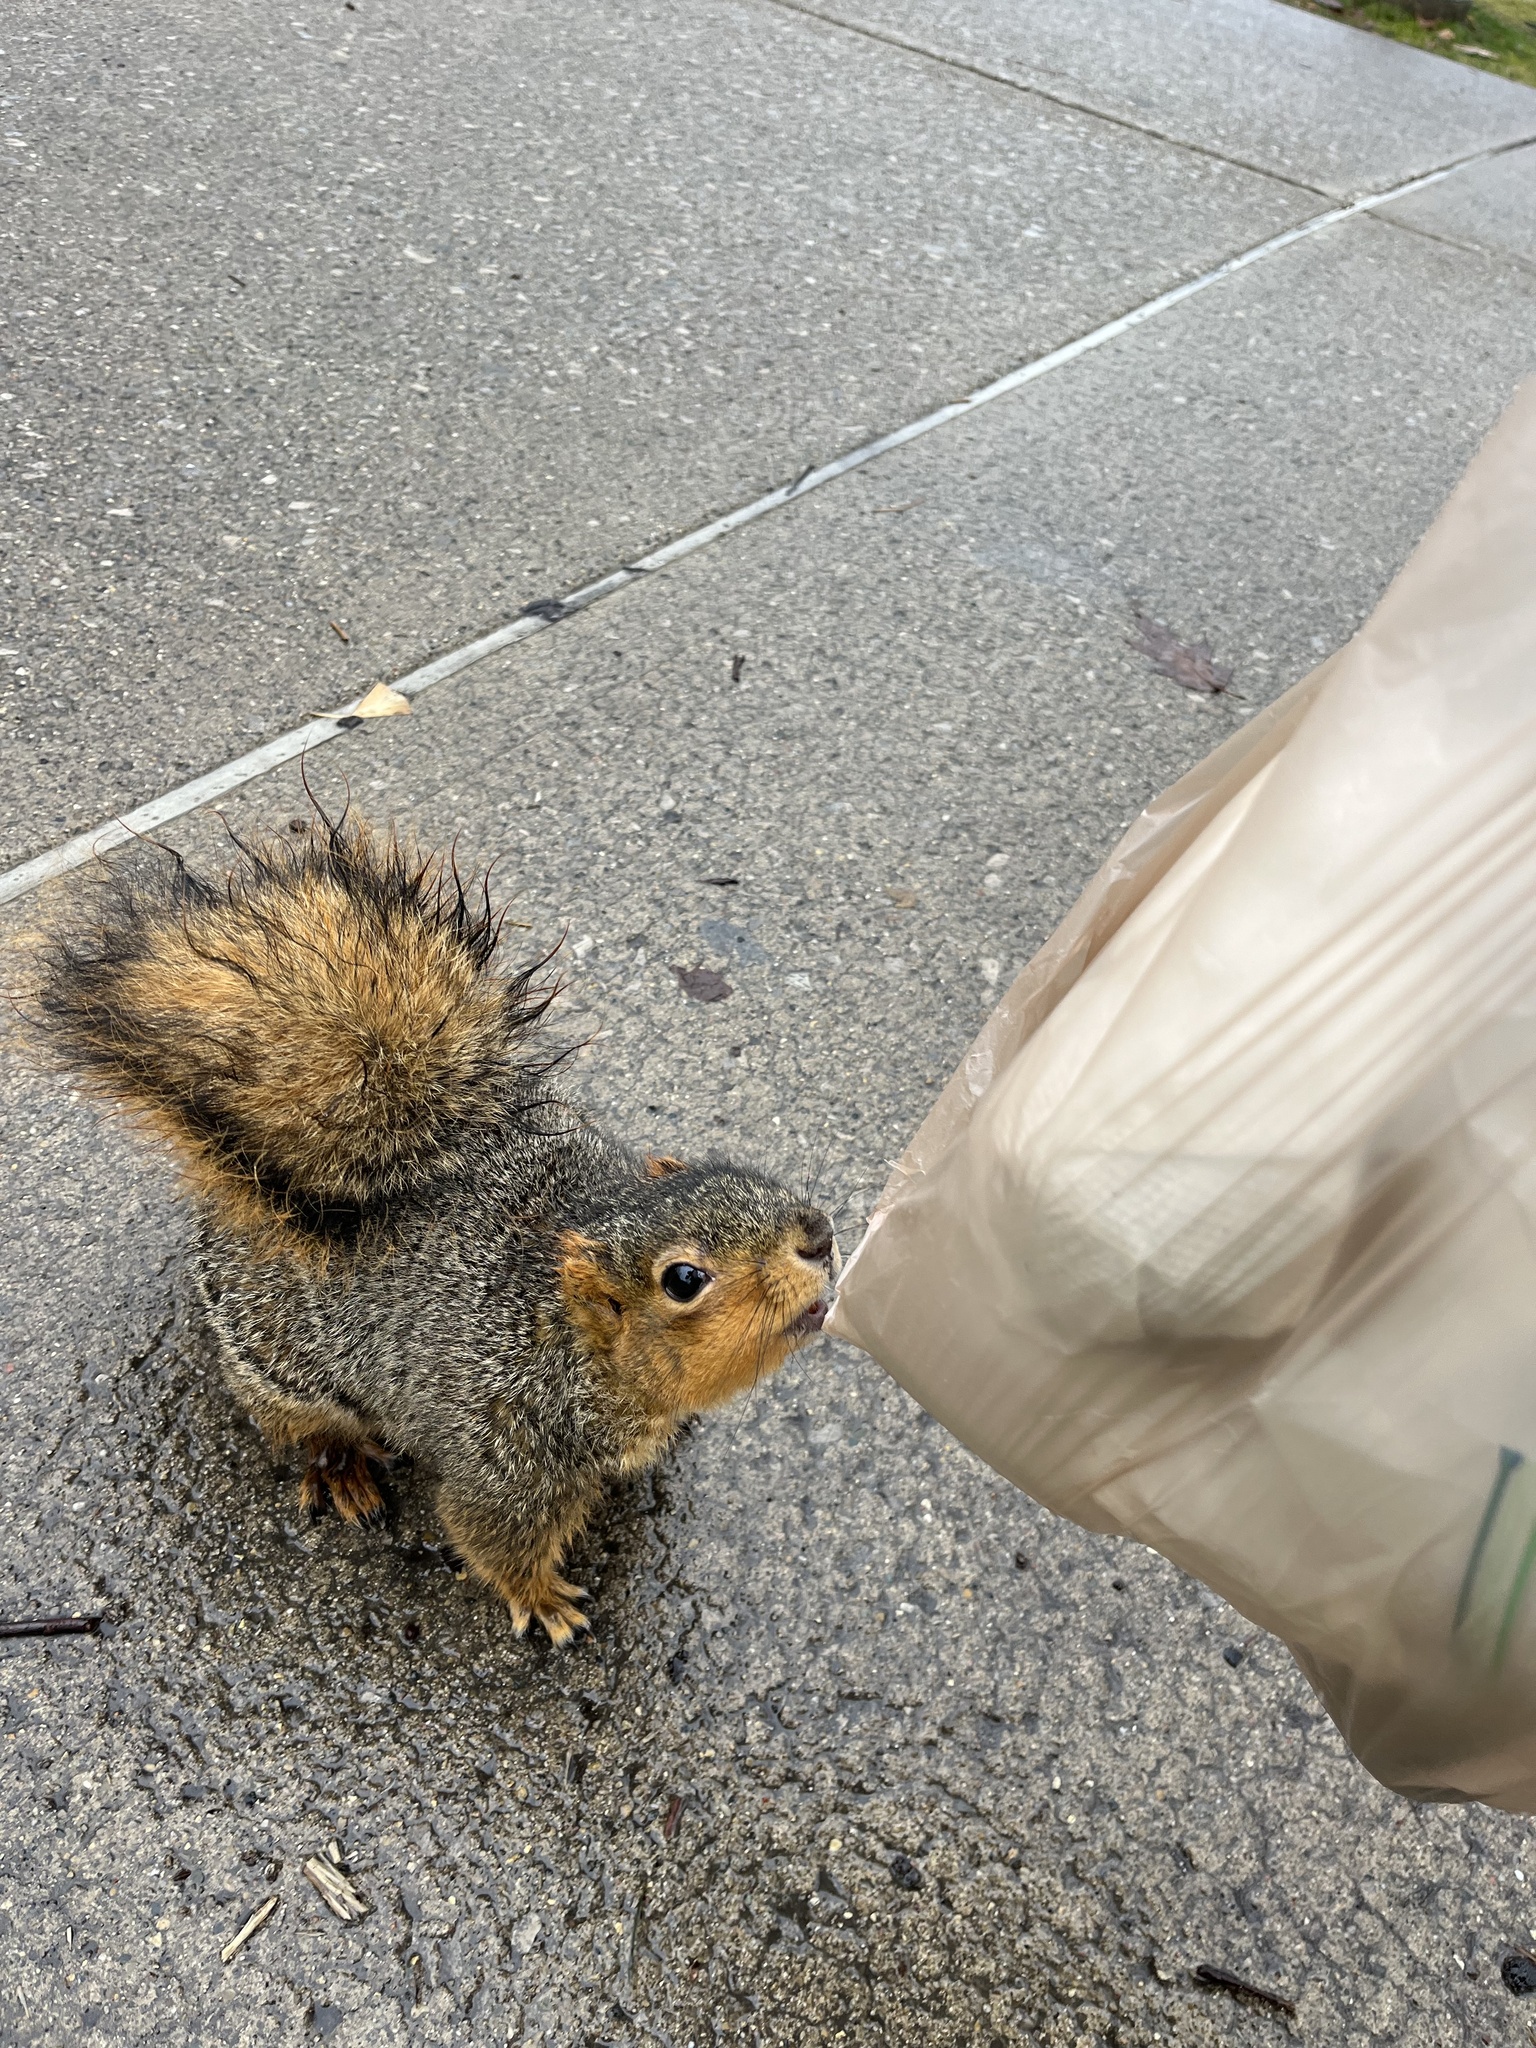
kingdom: Animalia
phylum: Chordata
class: Mammalia
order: Rodentia
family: Sciuridae
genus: Sciurus
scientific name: Sciurus niger
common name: Fox squirrel
